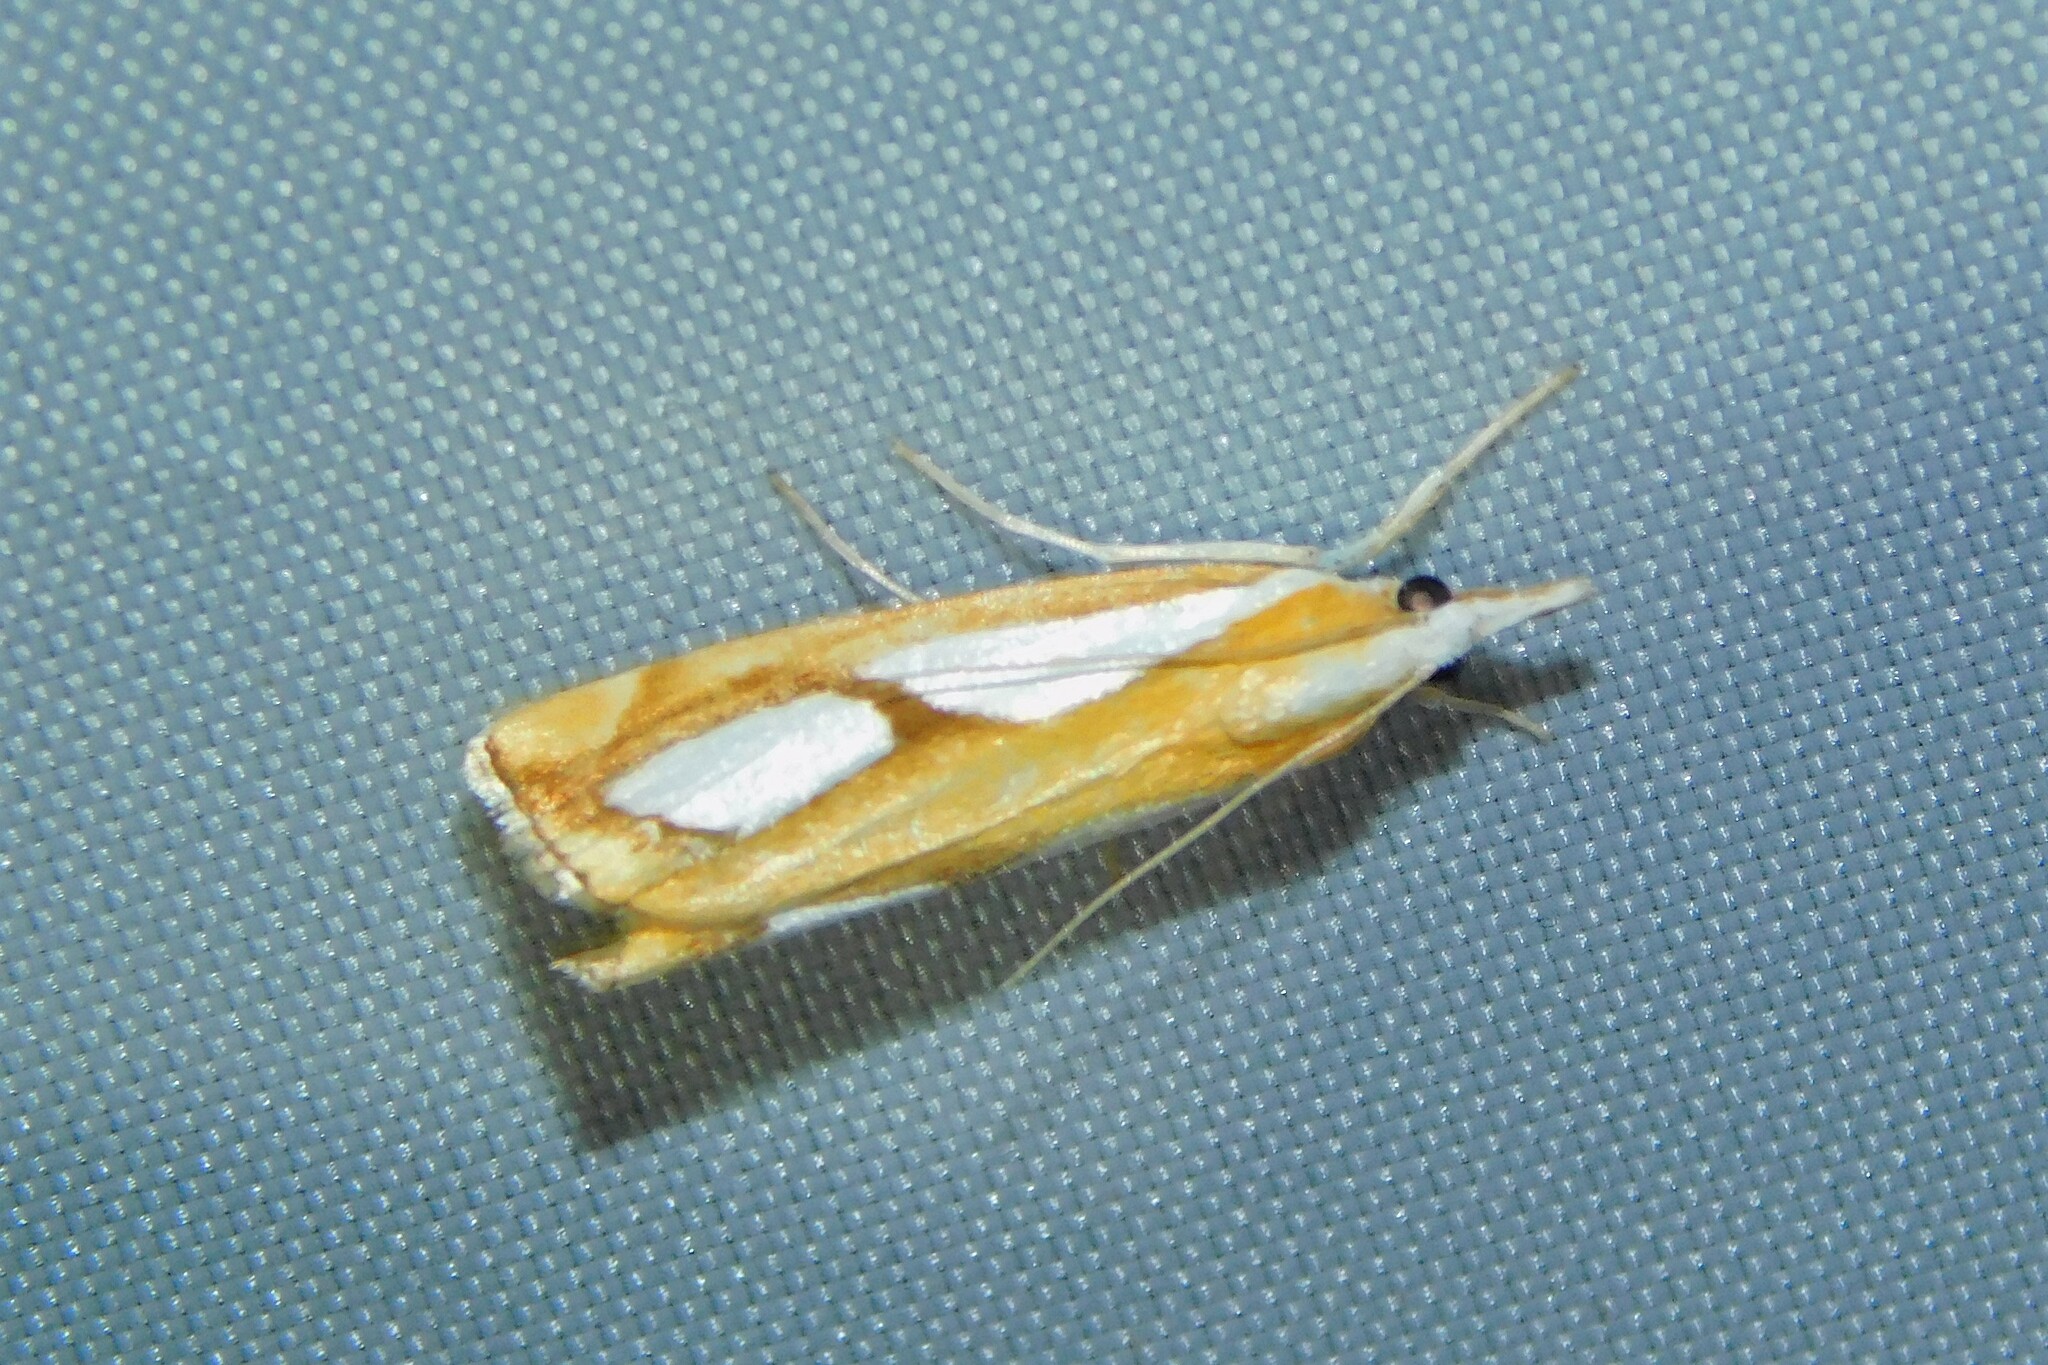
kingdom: Animalia
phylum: Arthropoda
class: Insecta
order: Lepidoptera
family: Crambidae
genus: Catoptria
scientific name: Catoptria pinella
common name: Pearl grass-veneer
